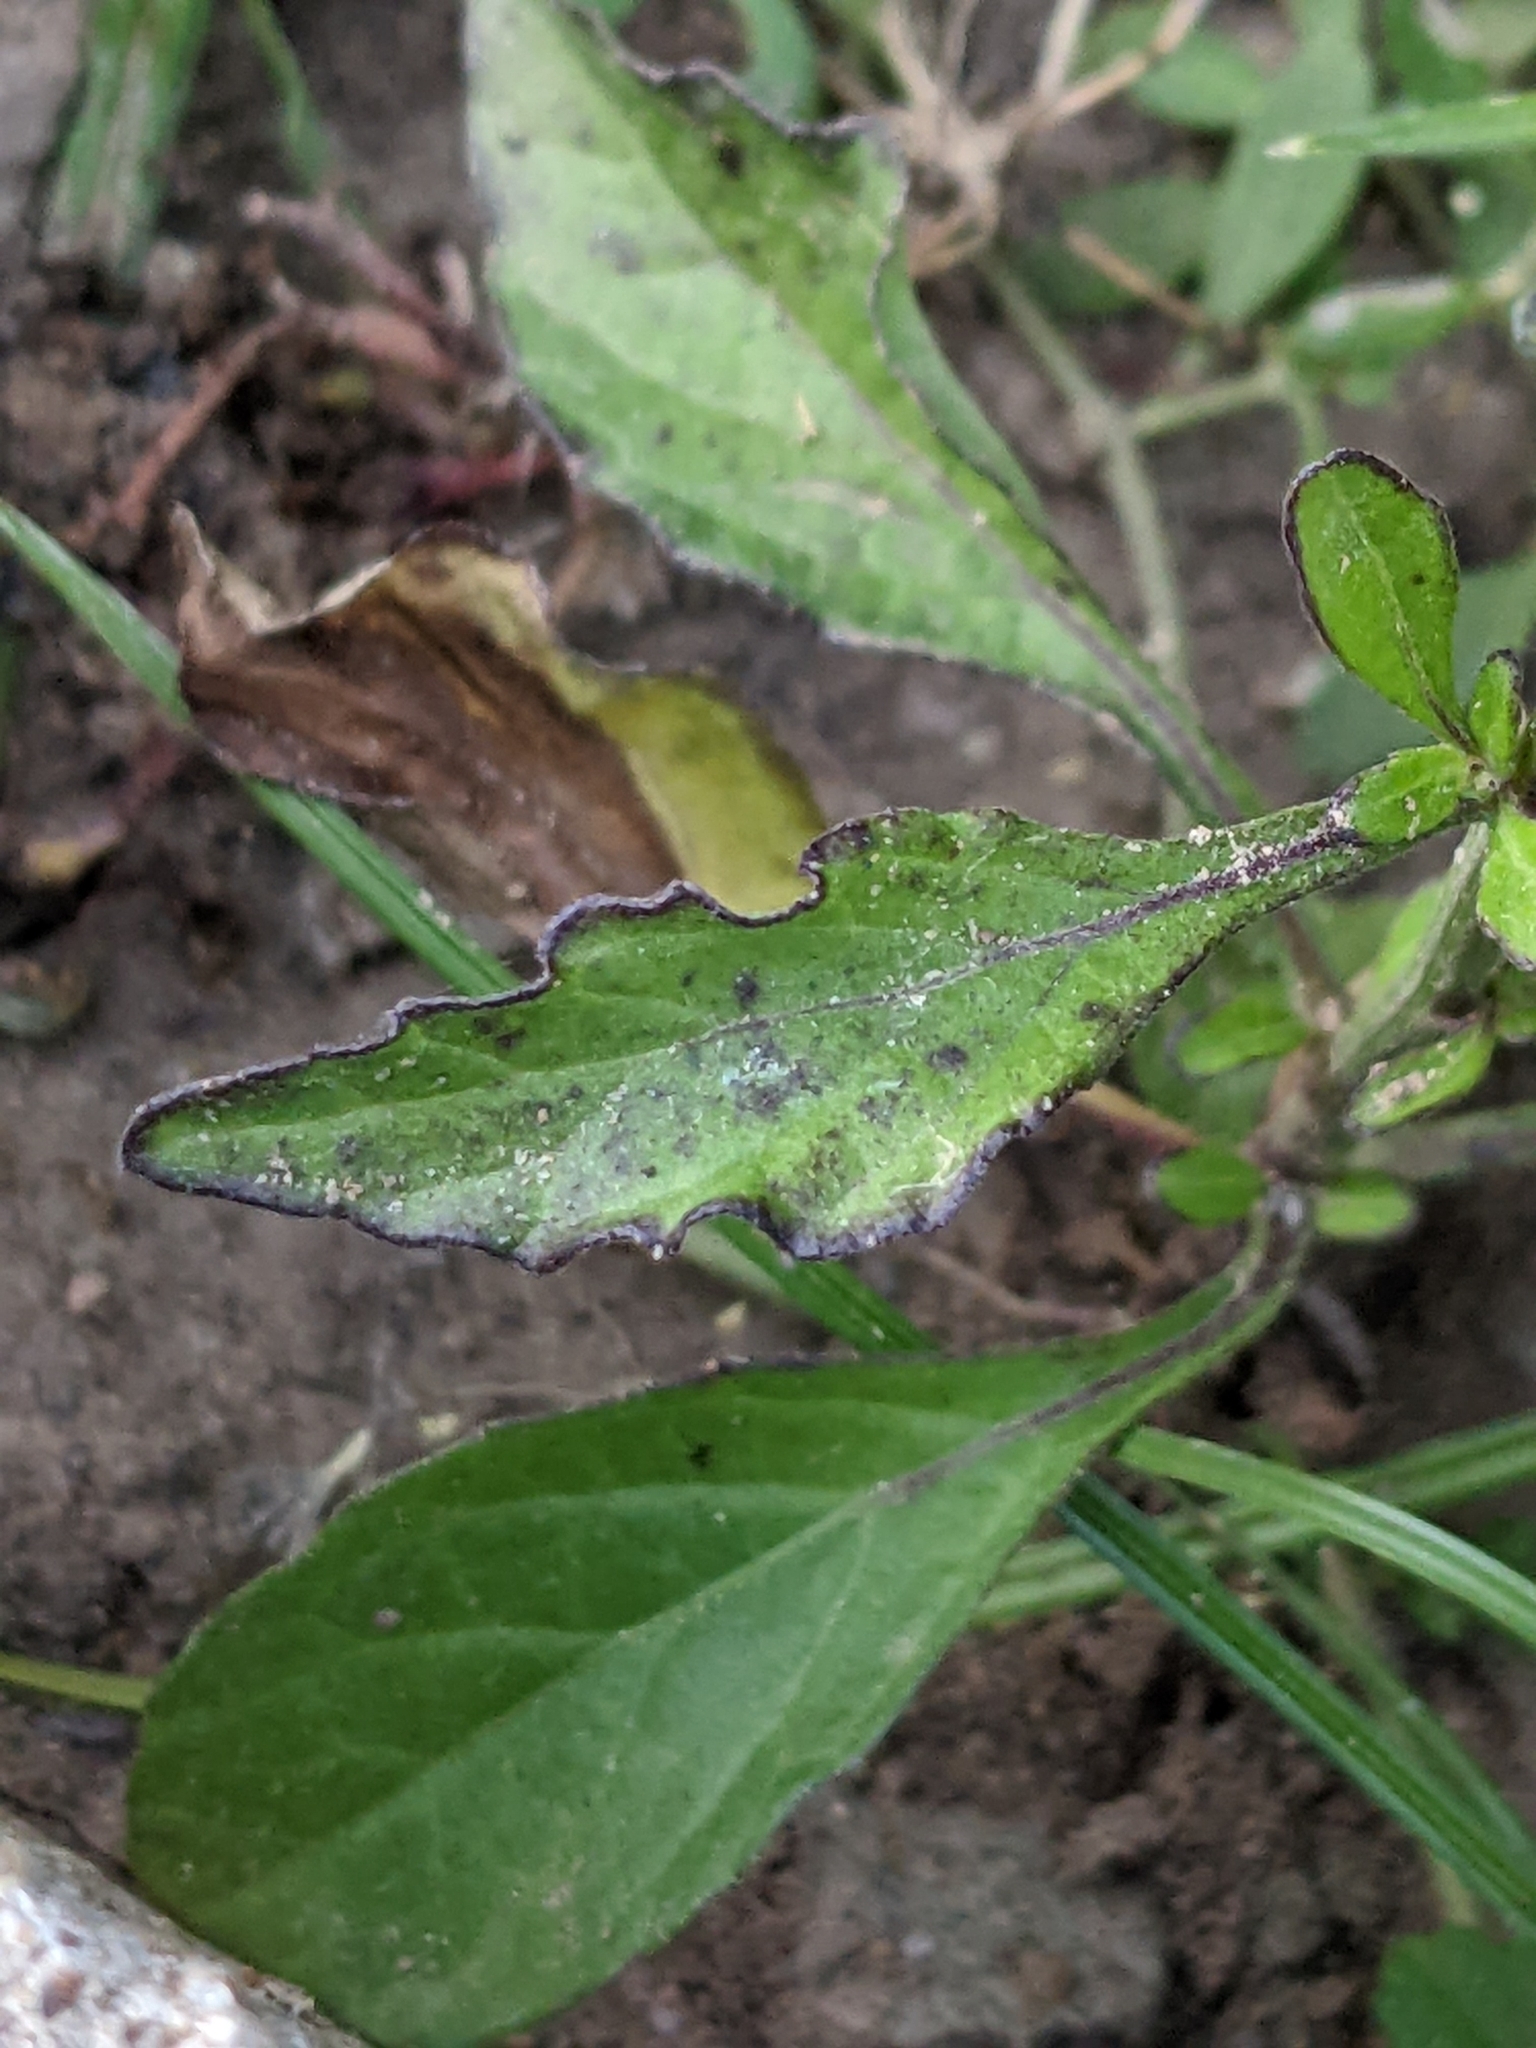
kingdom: Plantae
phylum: Tracheophyta
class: Magnoliopsida
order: Asterales
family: Asteraceae
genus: Cyanthillium
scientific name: Cyanthillium cinereum
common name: Little ironweed
